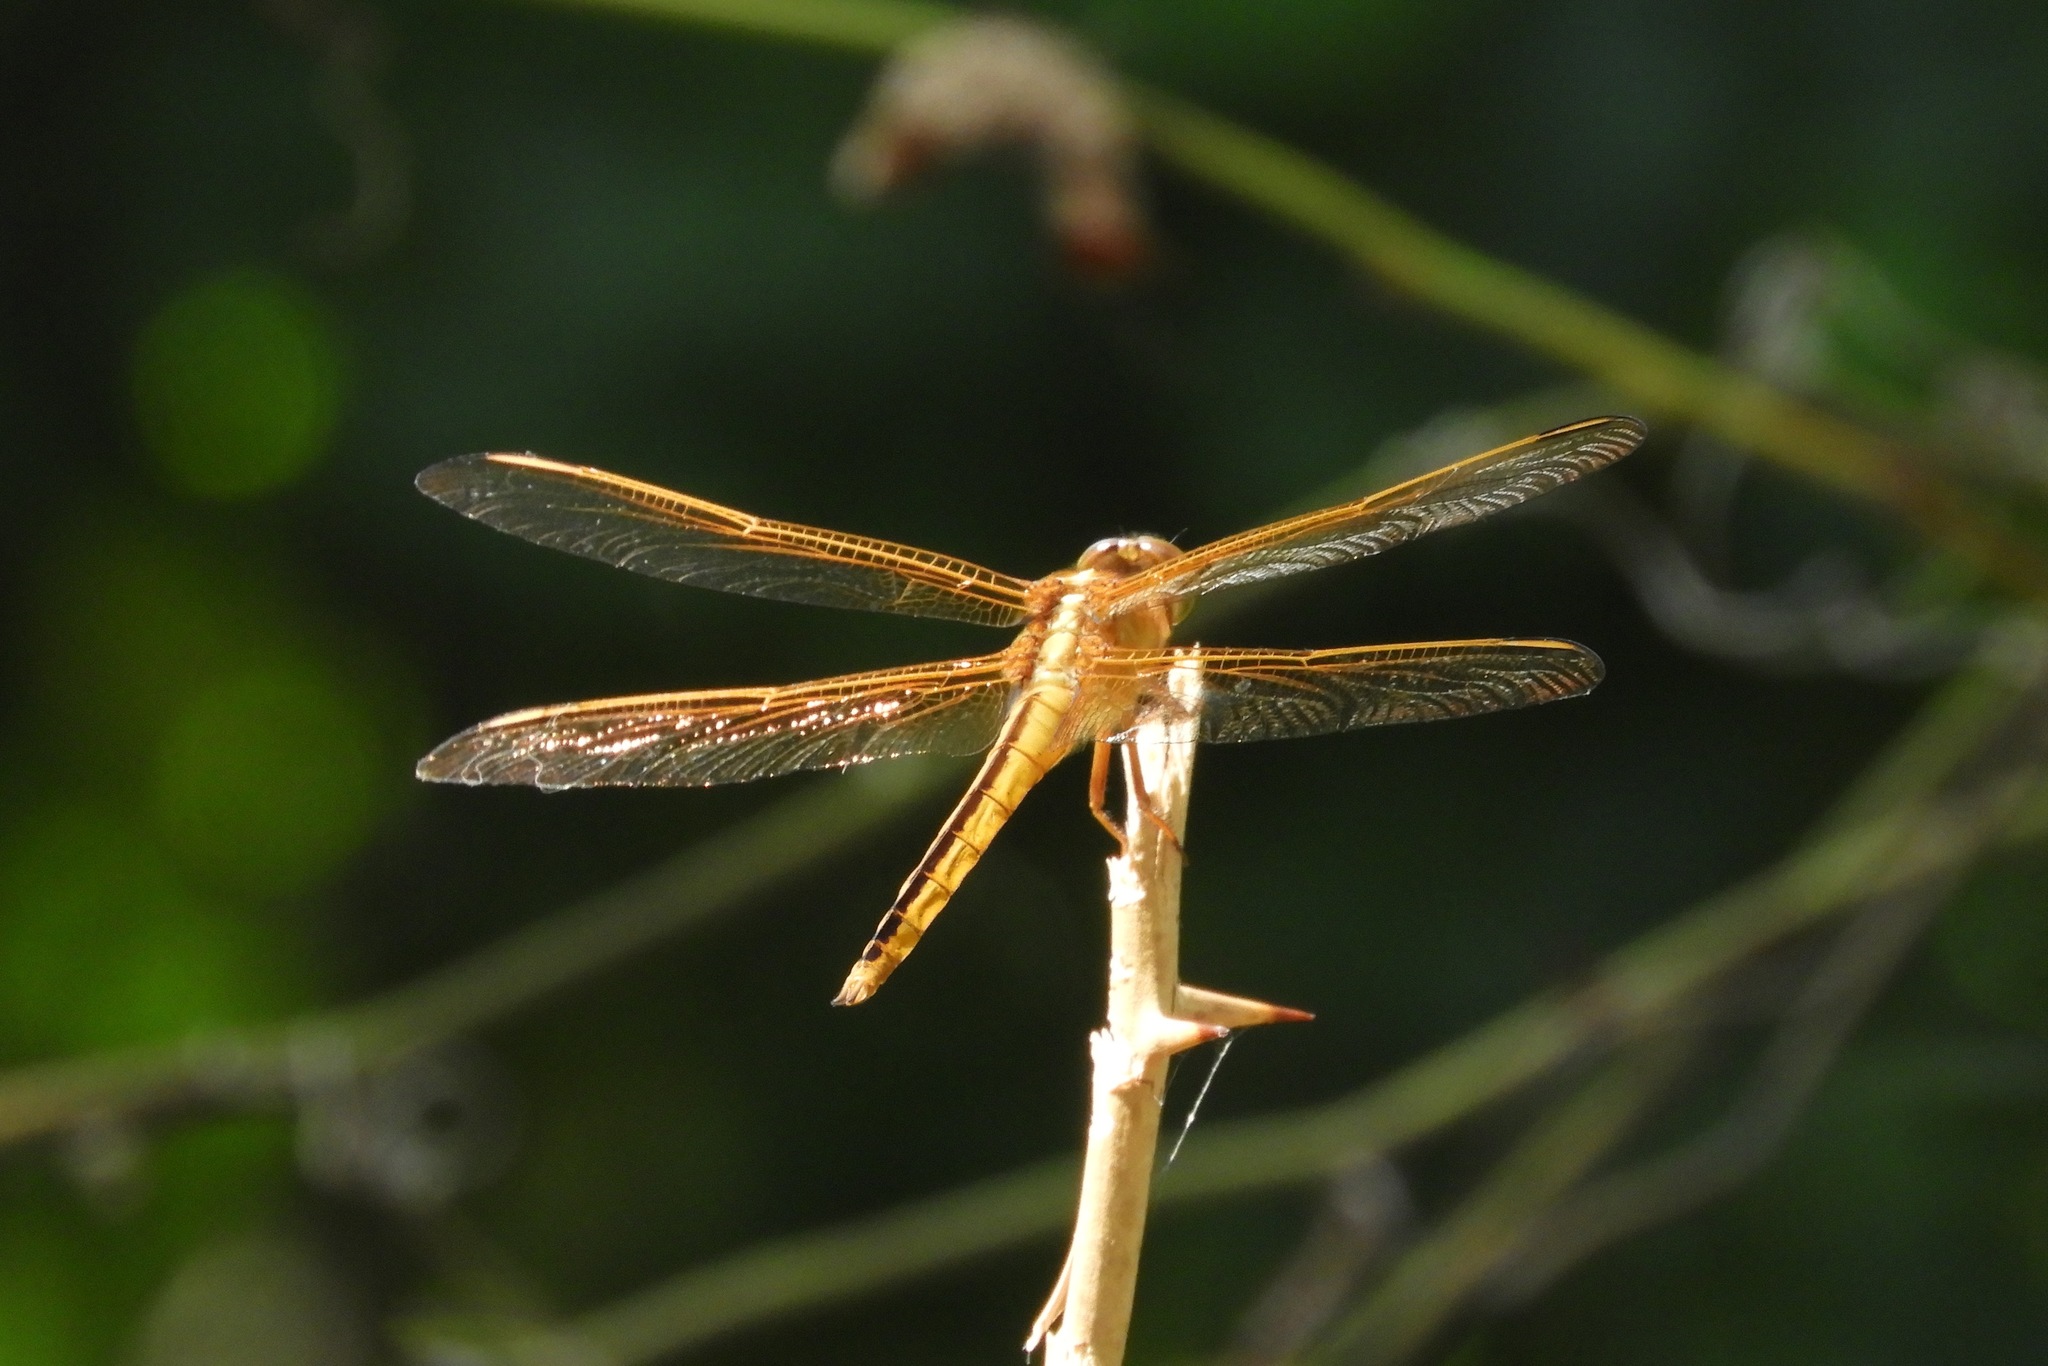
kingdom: Animalia
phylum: Arthropoda
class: Insecta
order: Odonata
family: Libellulidae
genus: Libellula
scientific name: Libellula needhami
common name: Needham's skimmer
